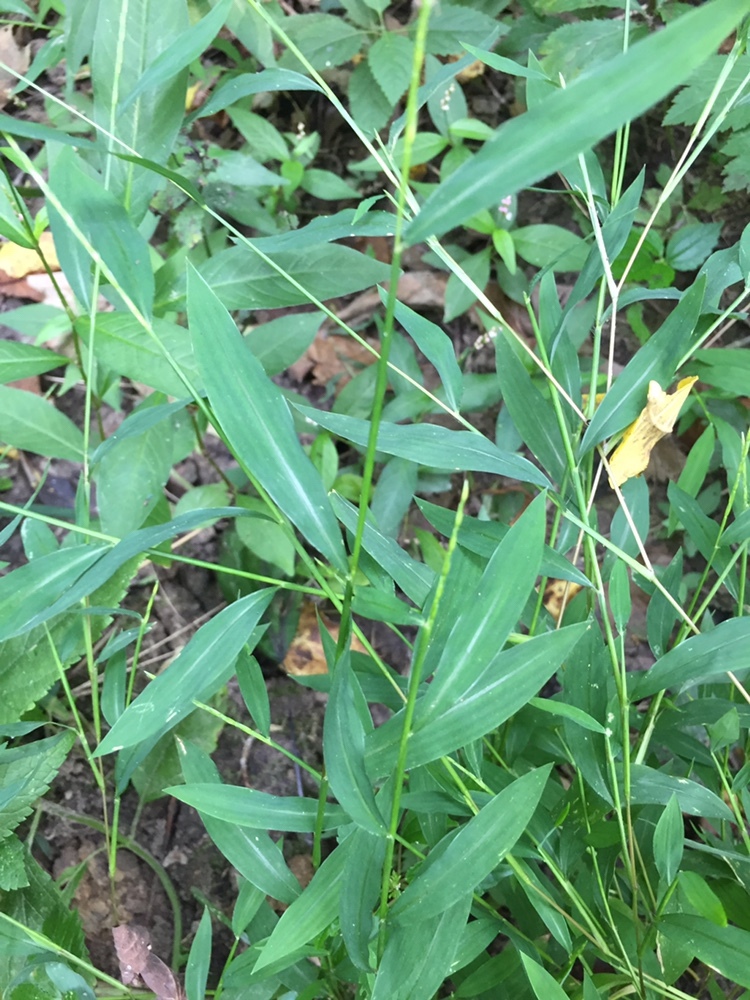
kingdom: Plantae
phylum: Tracheophyta
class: Liliopsida
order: Poales
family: Poaceae
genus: Microstegium
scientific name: Microstegium vimineum
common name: Japanese stiltgrass
